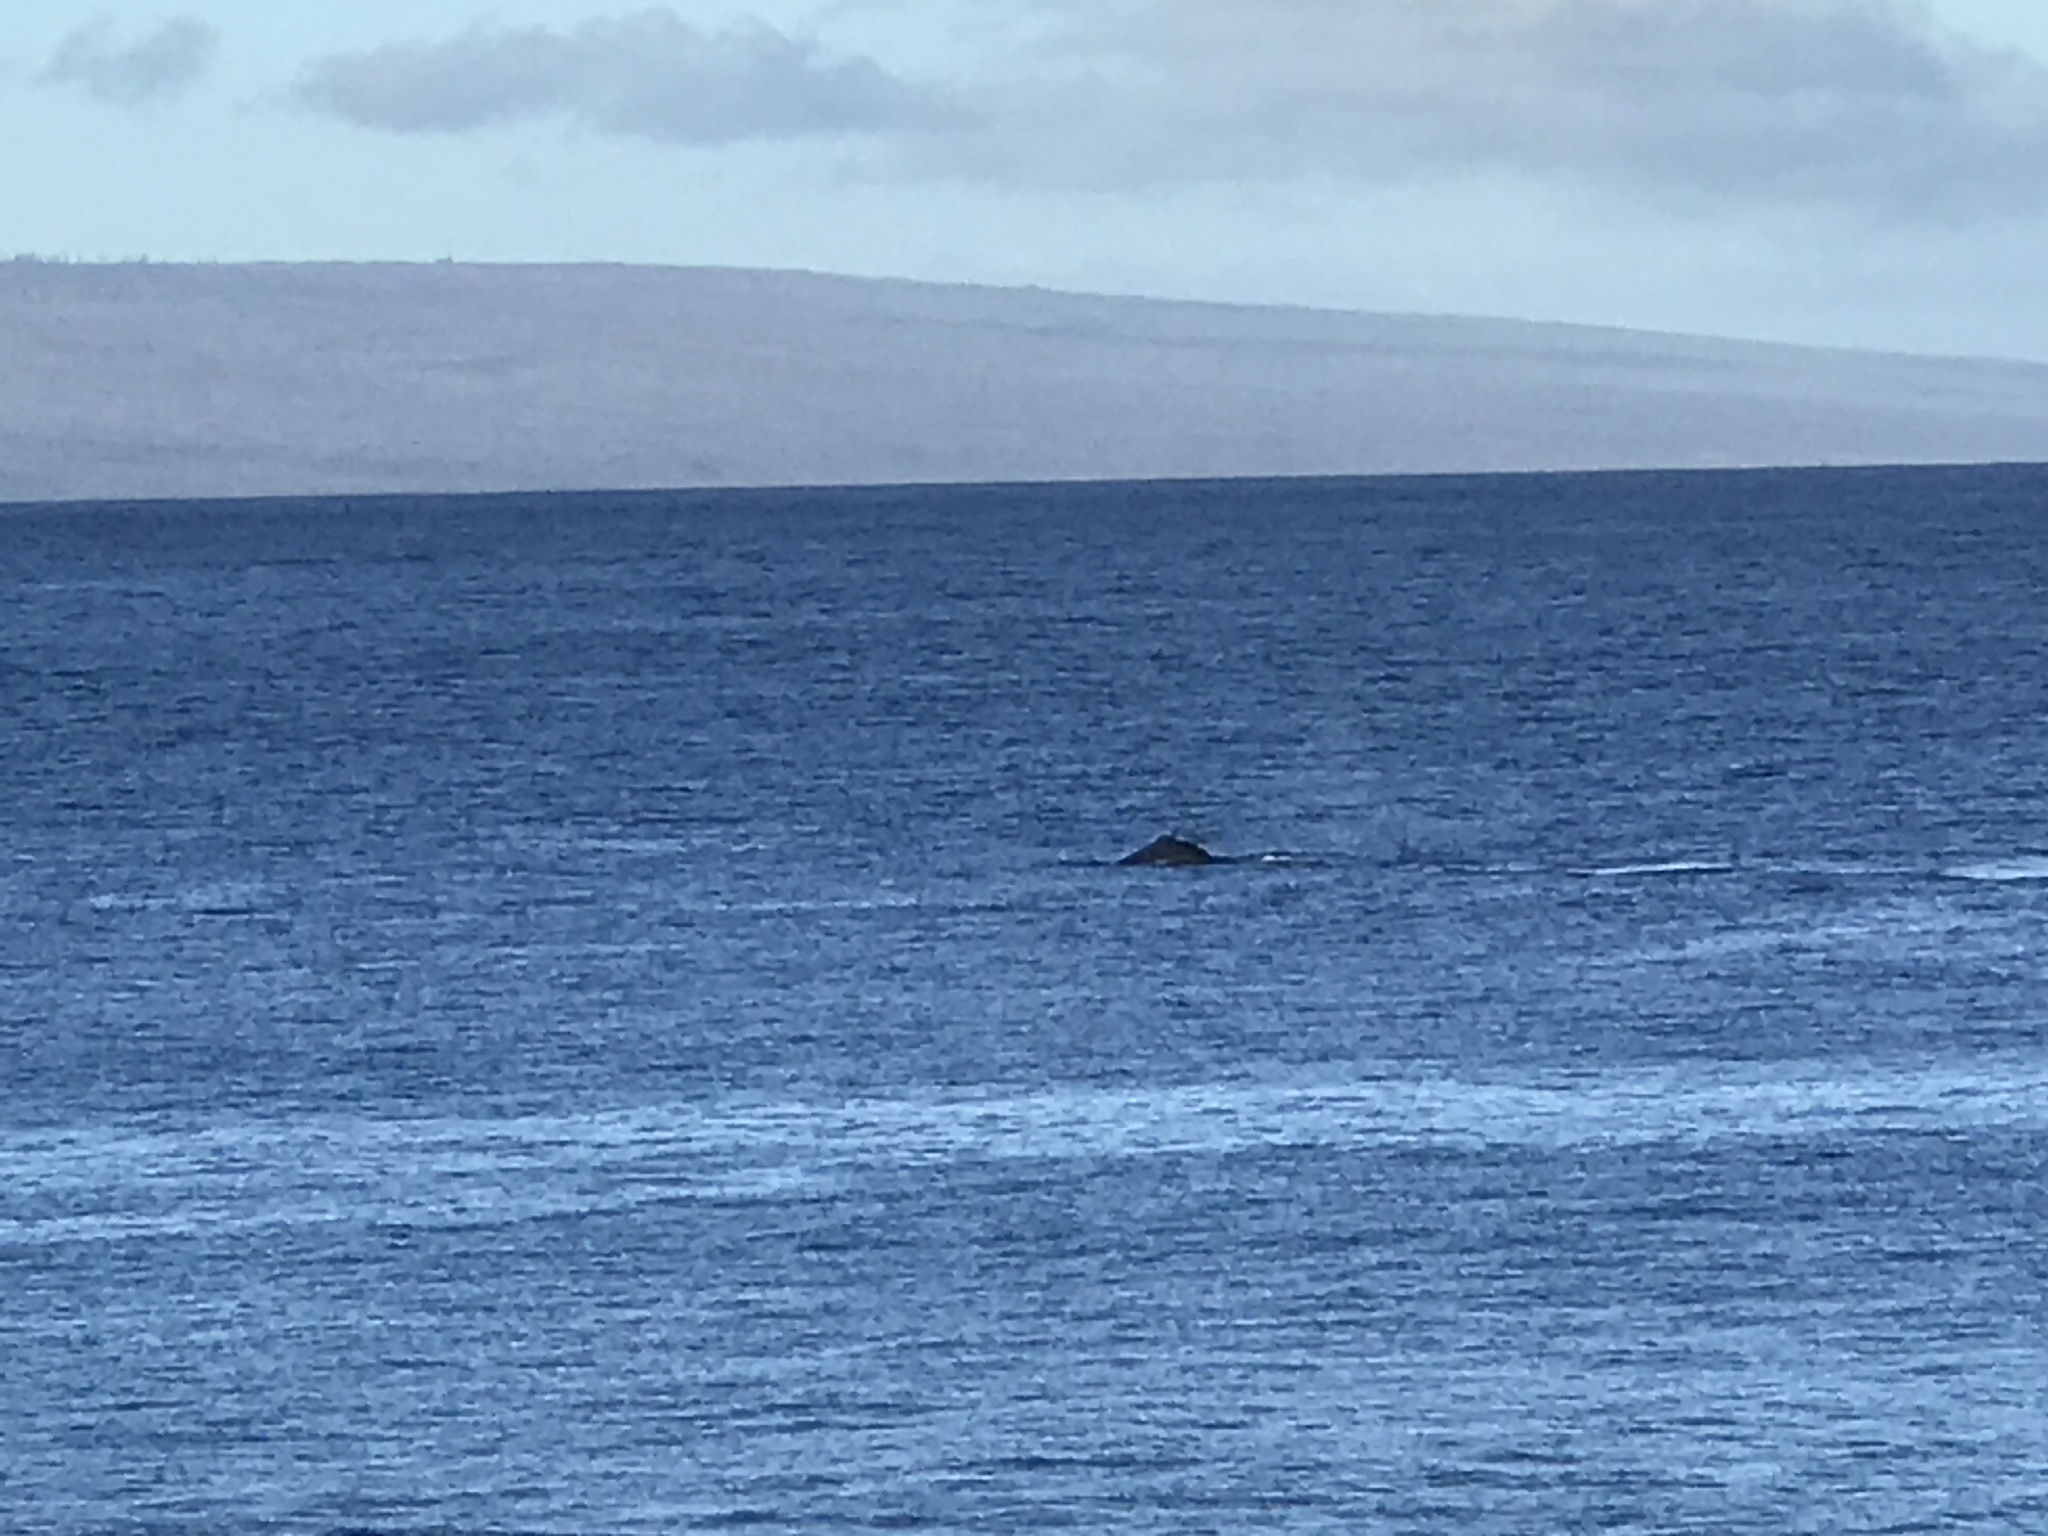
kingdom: Animalia
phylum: Chordata
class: Mammalia
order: Cetacea
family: Balaenopteridae
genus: Megaptera
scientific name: Megaptera novaeangliae
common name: Humpback whale
